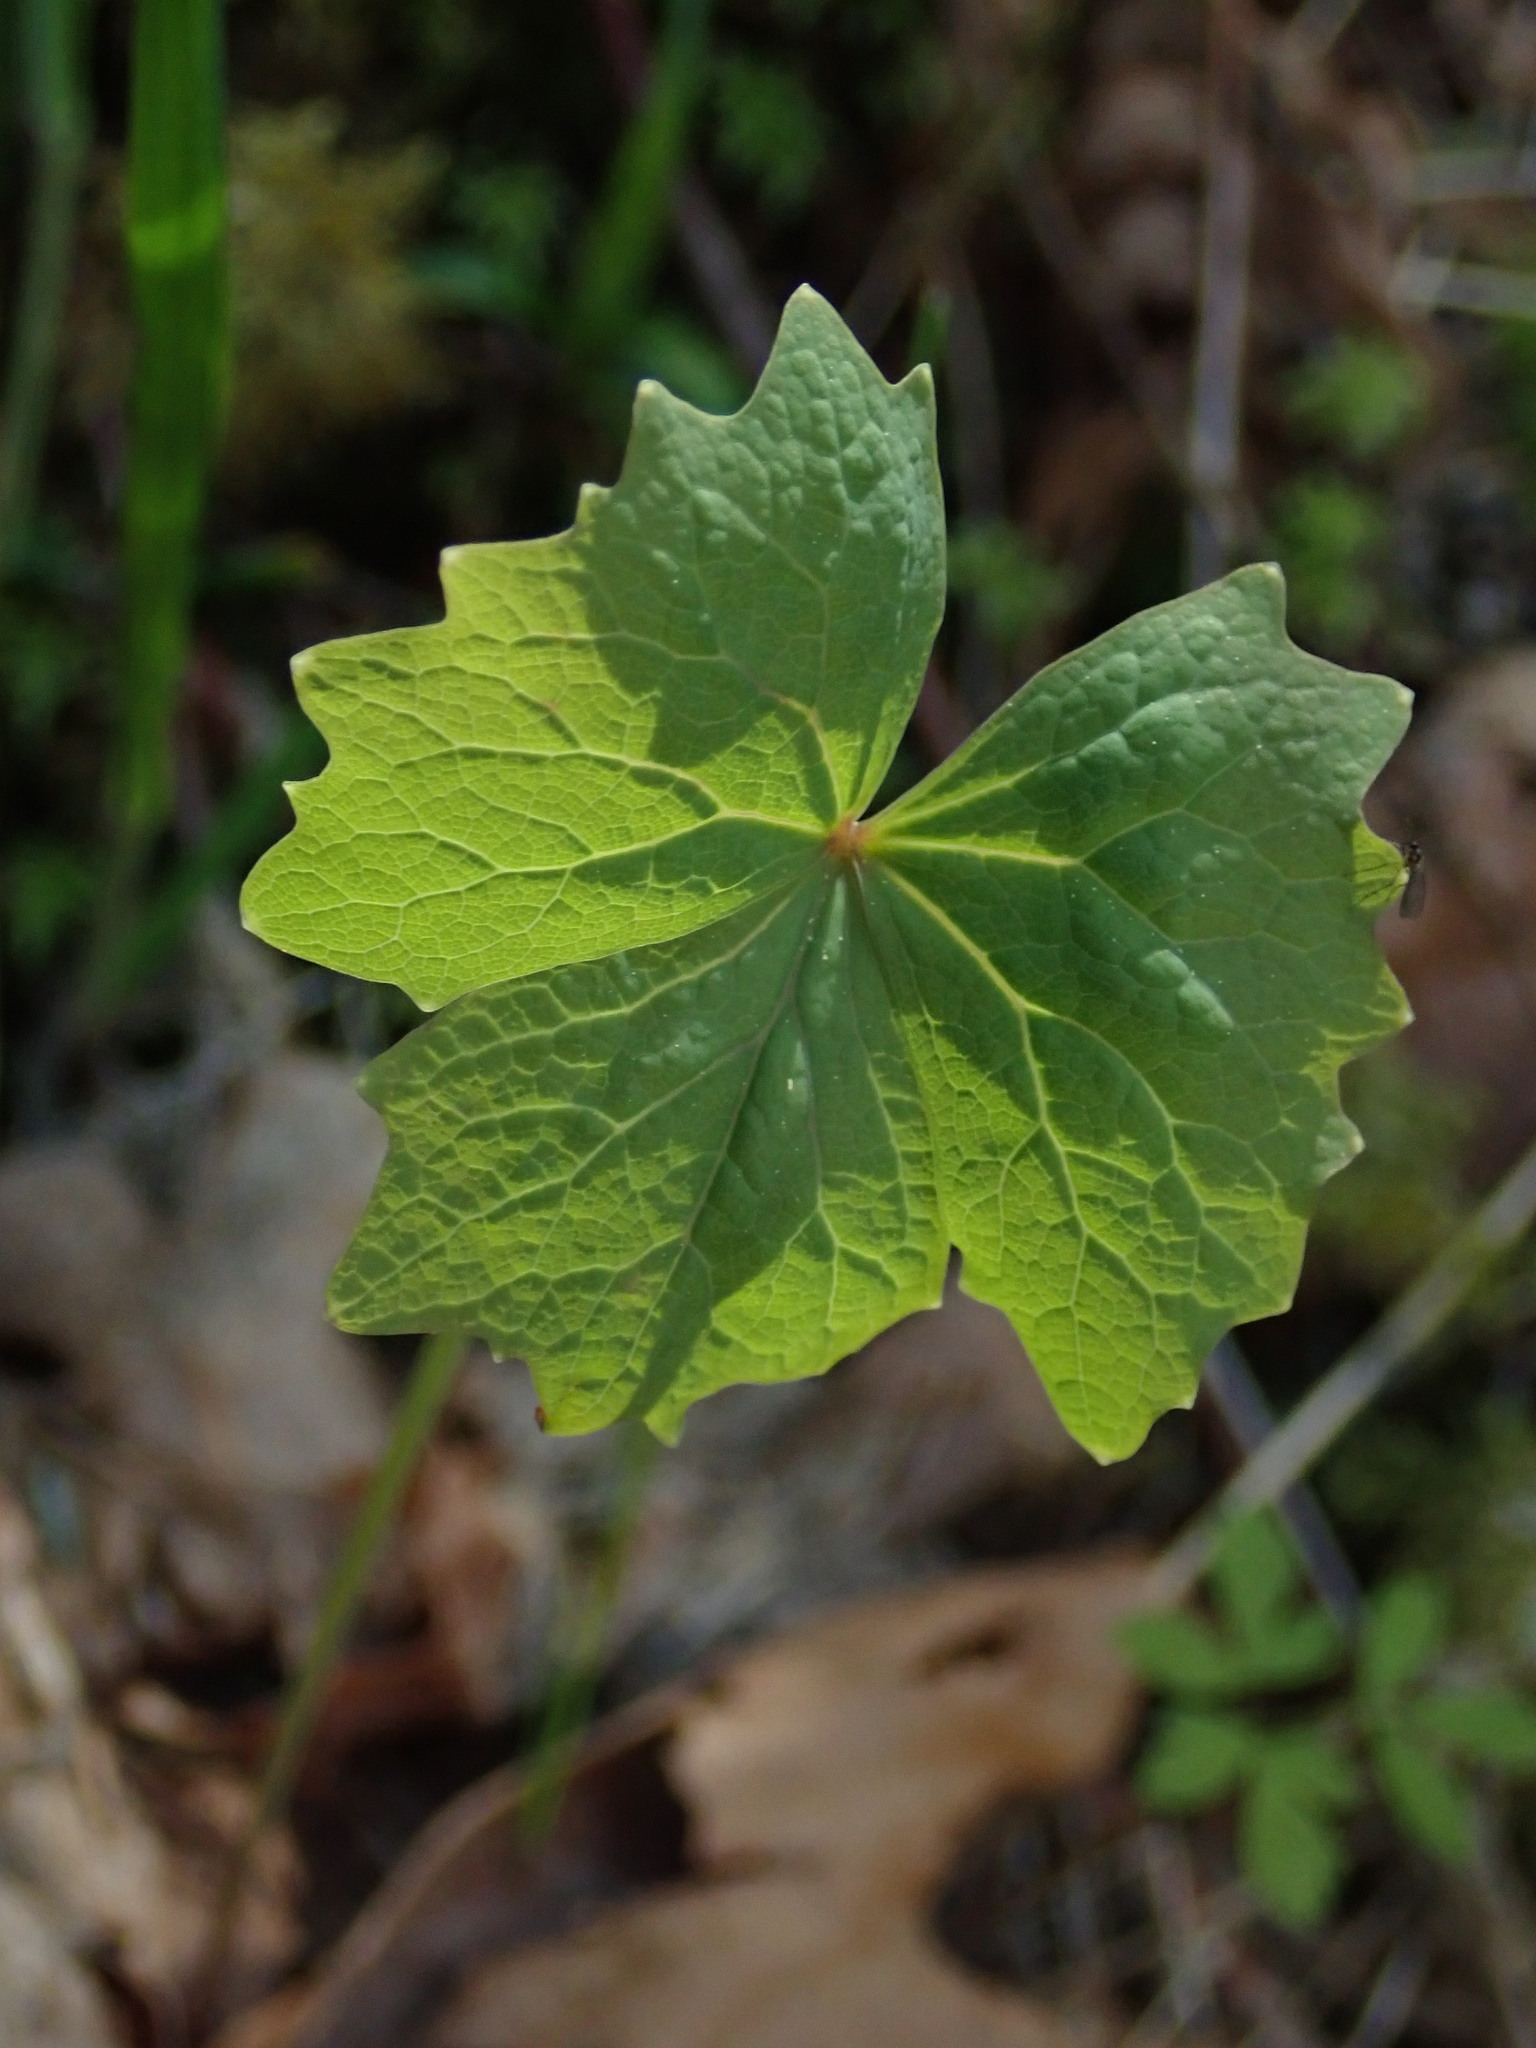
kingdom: Plantae
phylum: Tracheophyta
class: Magnoliopsida
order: Ranunculales
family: Berberidaceae
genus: Achlys
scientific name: Achlys triphylla
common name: Vanilla-leaf
